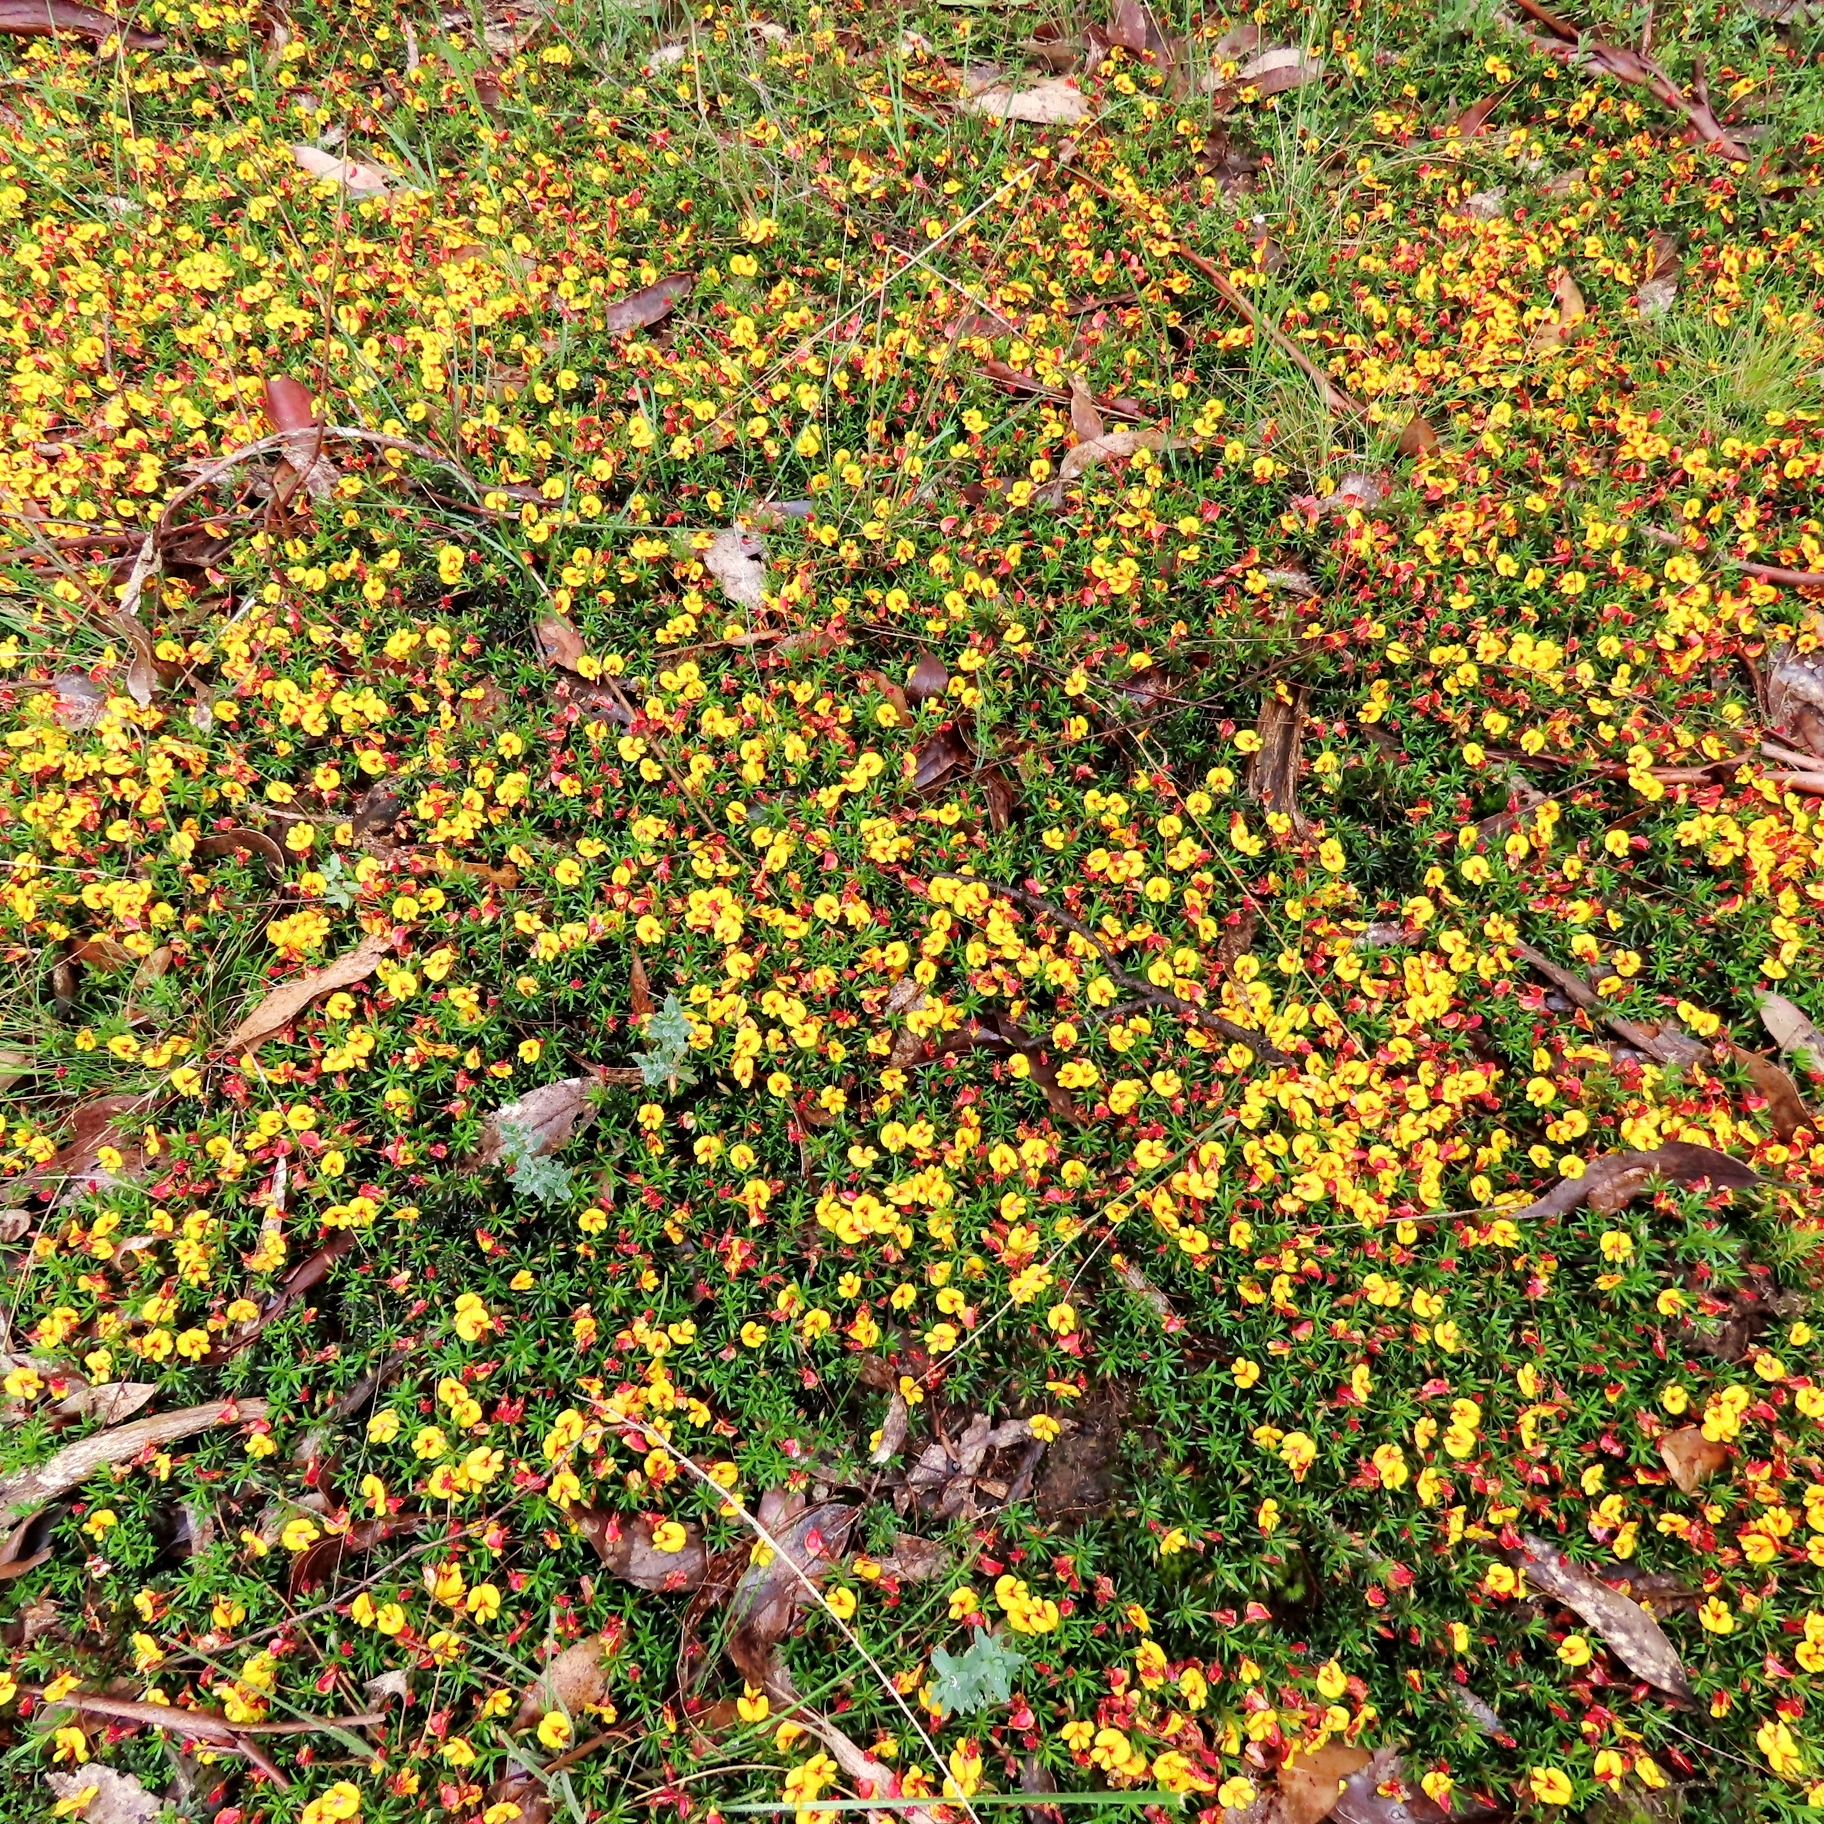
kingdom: Plantae
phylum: Tracheophyta
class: Magnoliopsida
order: Fabales
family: Fabaceae
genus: Pultenaea
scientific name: Pultenaea pedunculata
